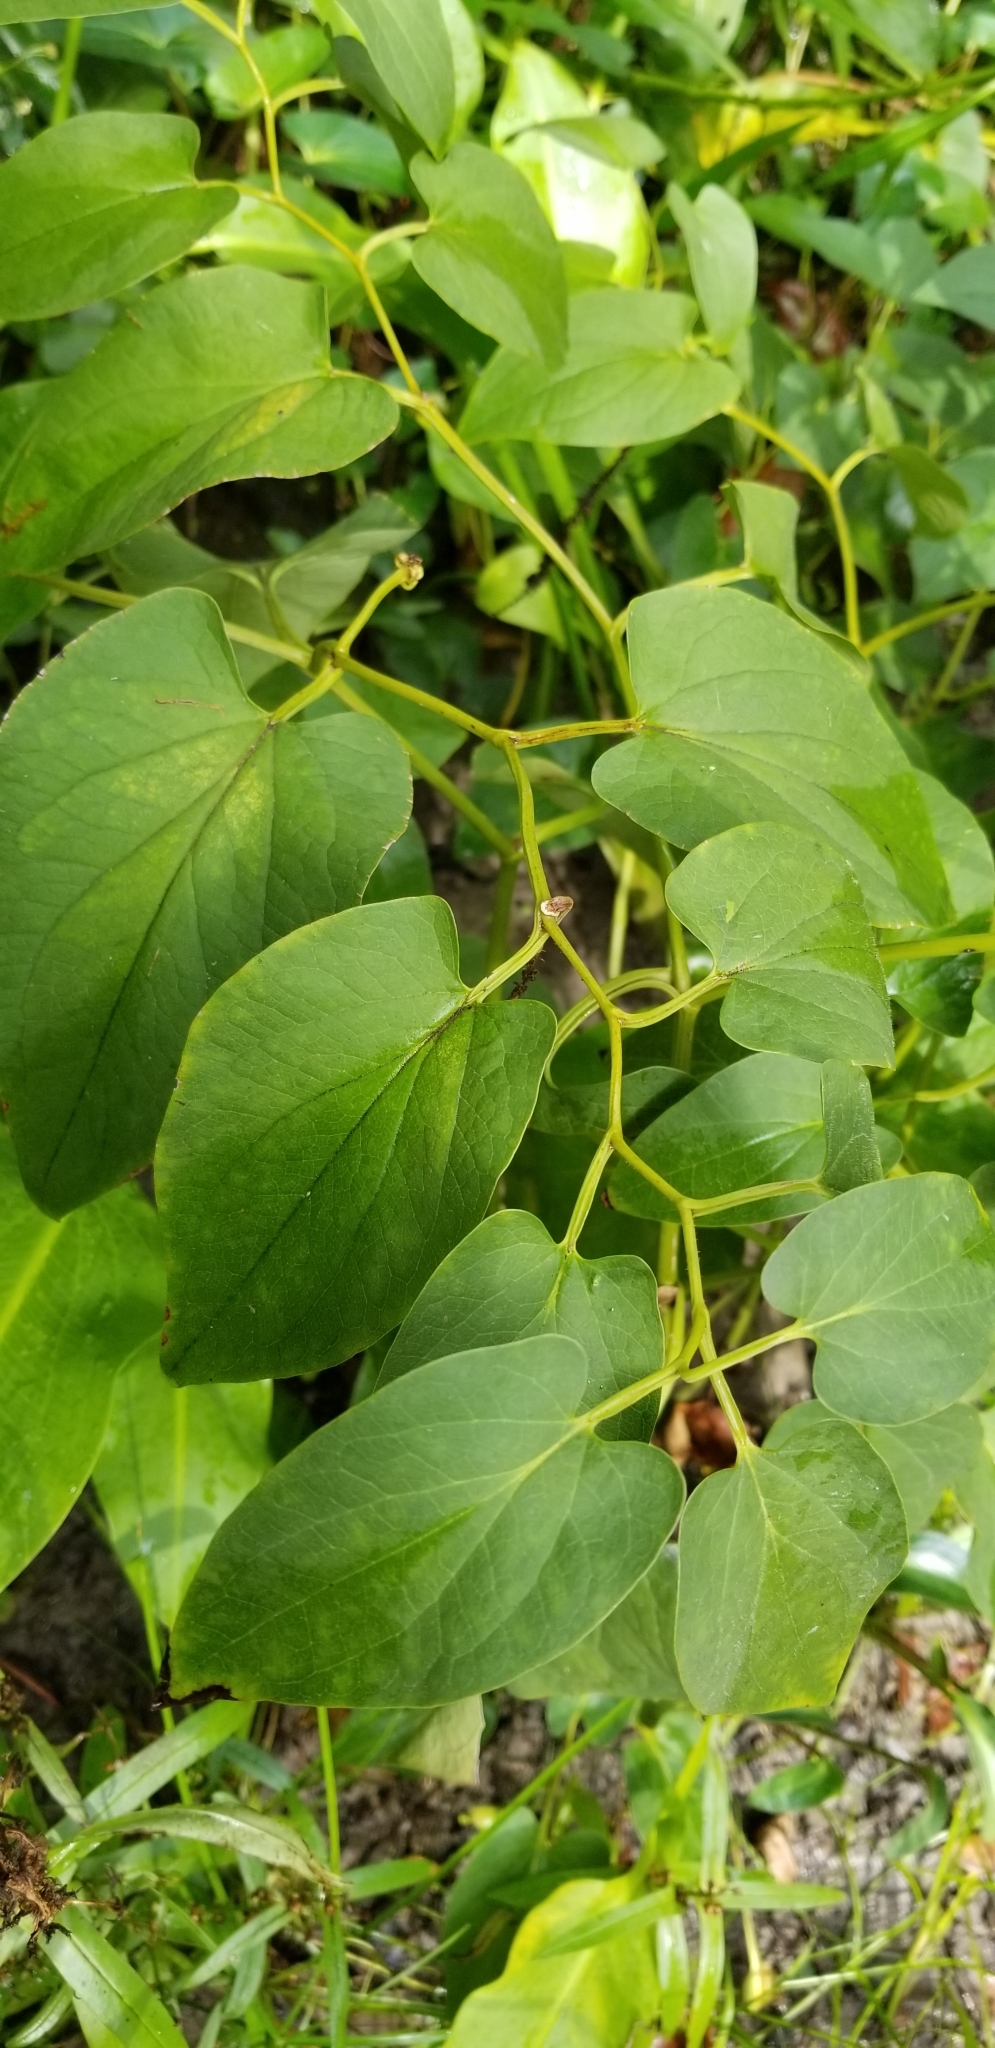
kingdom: Plantae
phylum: Tracheophyta
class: Magnoliopsida
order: Piperales
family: Saururaceae
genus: Saururus
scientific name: Saururus cernuus
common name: Lizard's-tail
